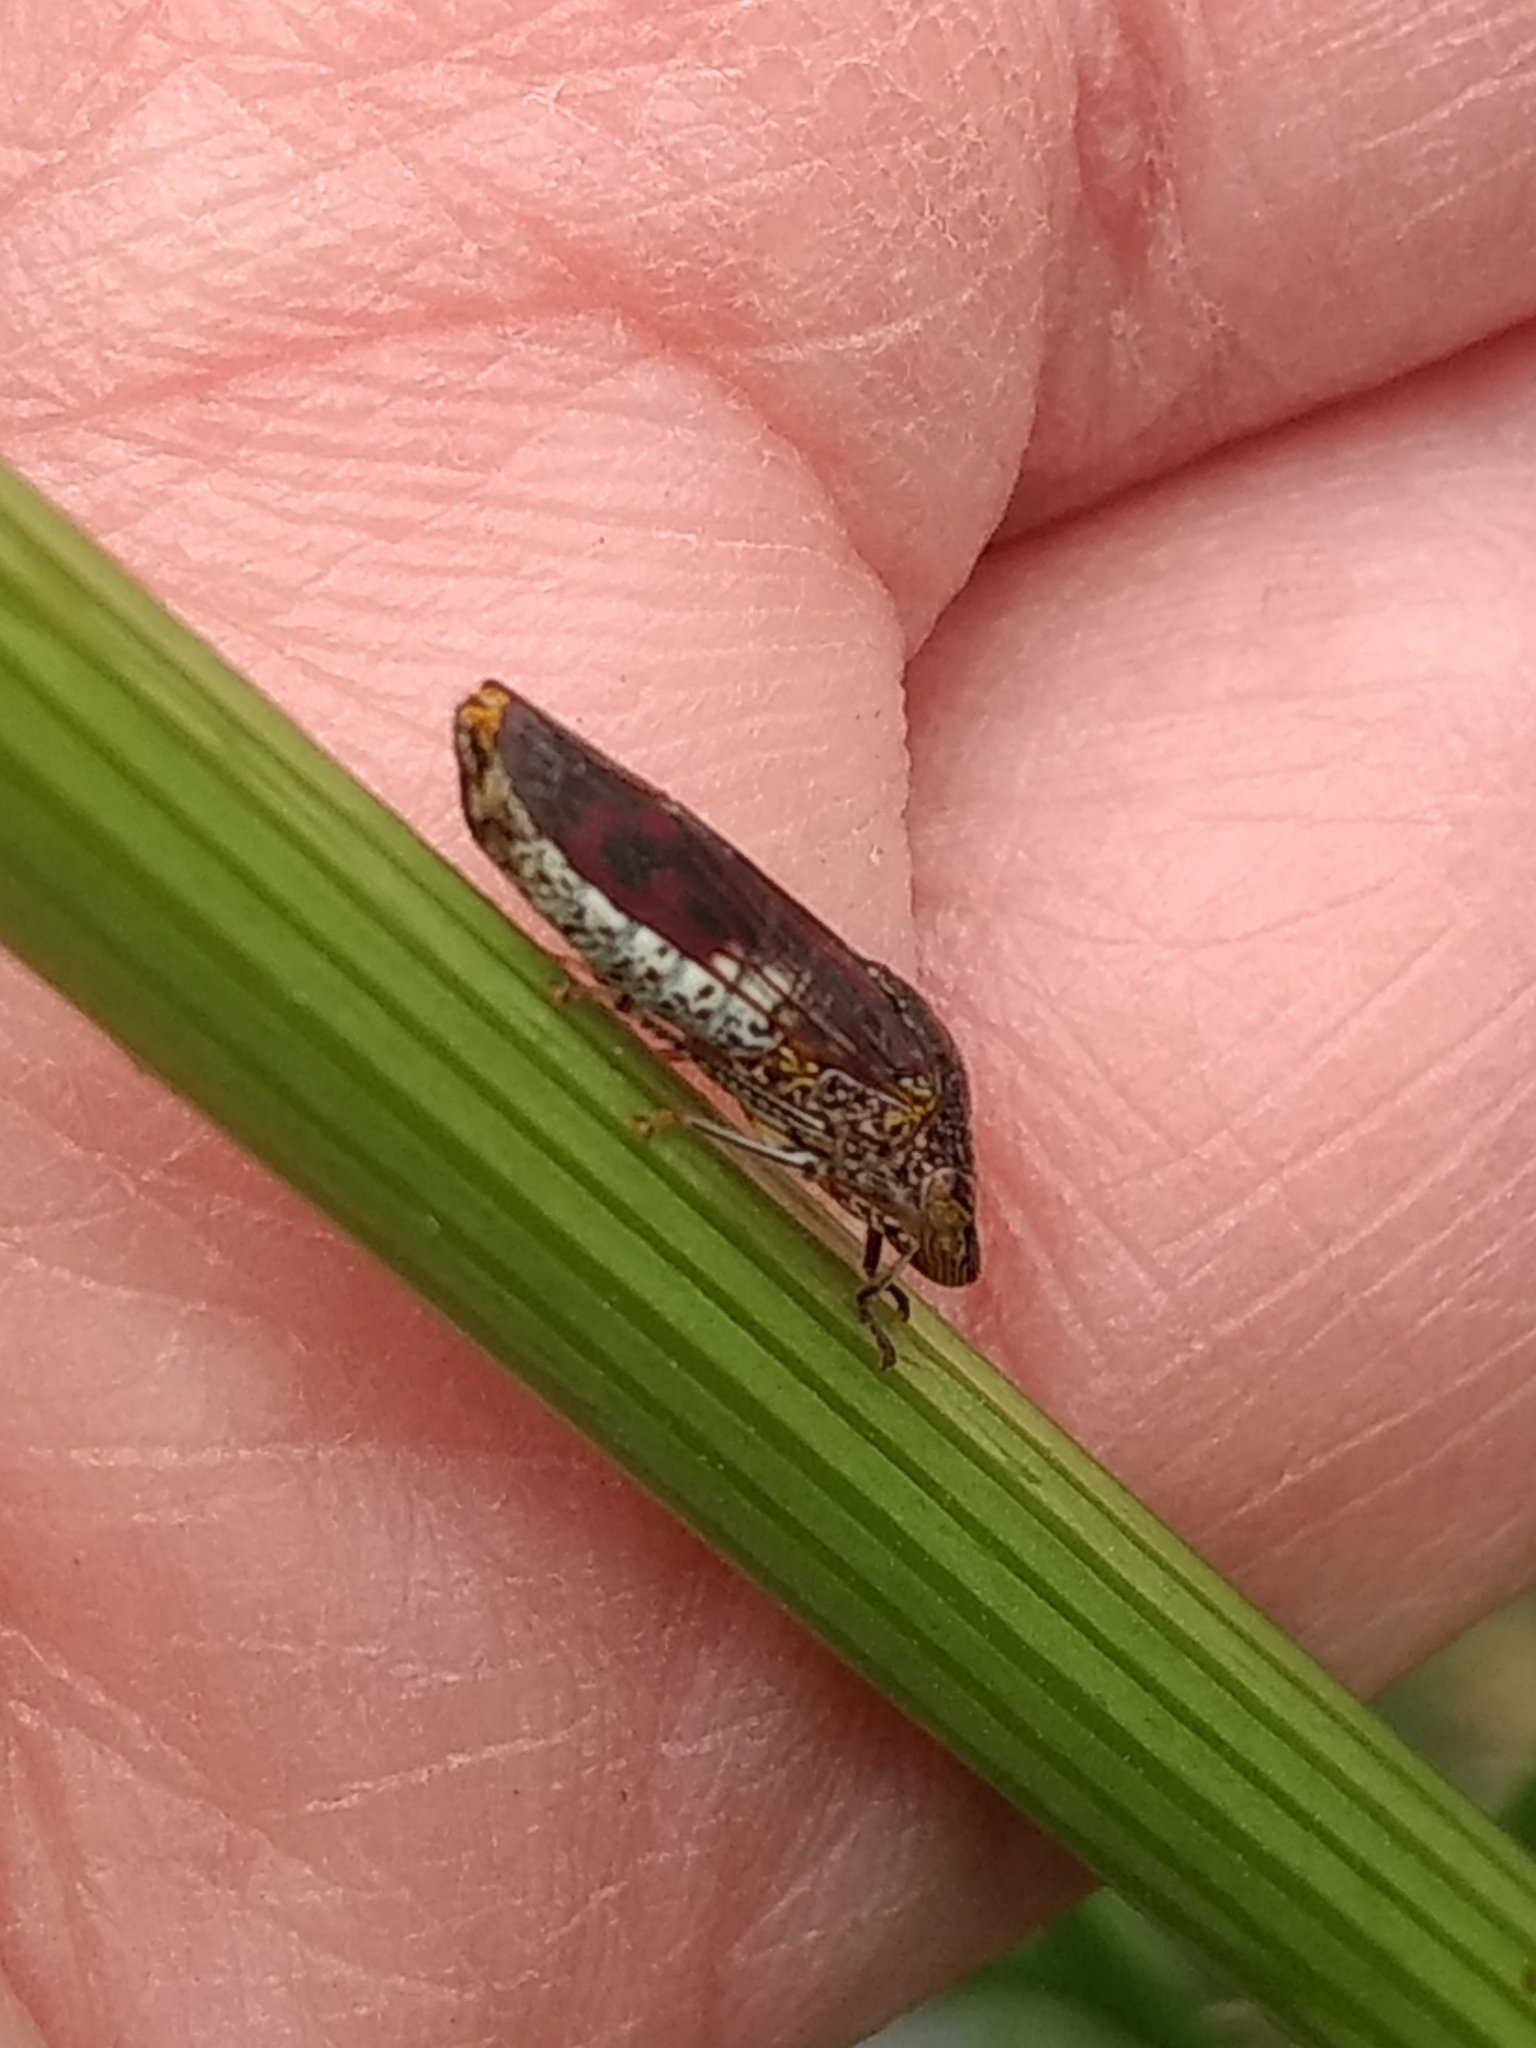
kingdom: Animalia
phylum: Arthropoda
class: Insecta
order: Hemiptera
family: Cicadellidae
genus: Homalodisca
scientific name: Homalodisca vitripennis
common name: Glassy-winged sharpshooter
